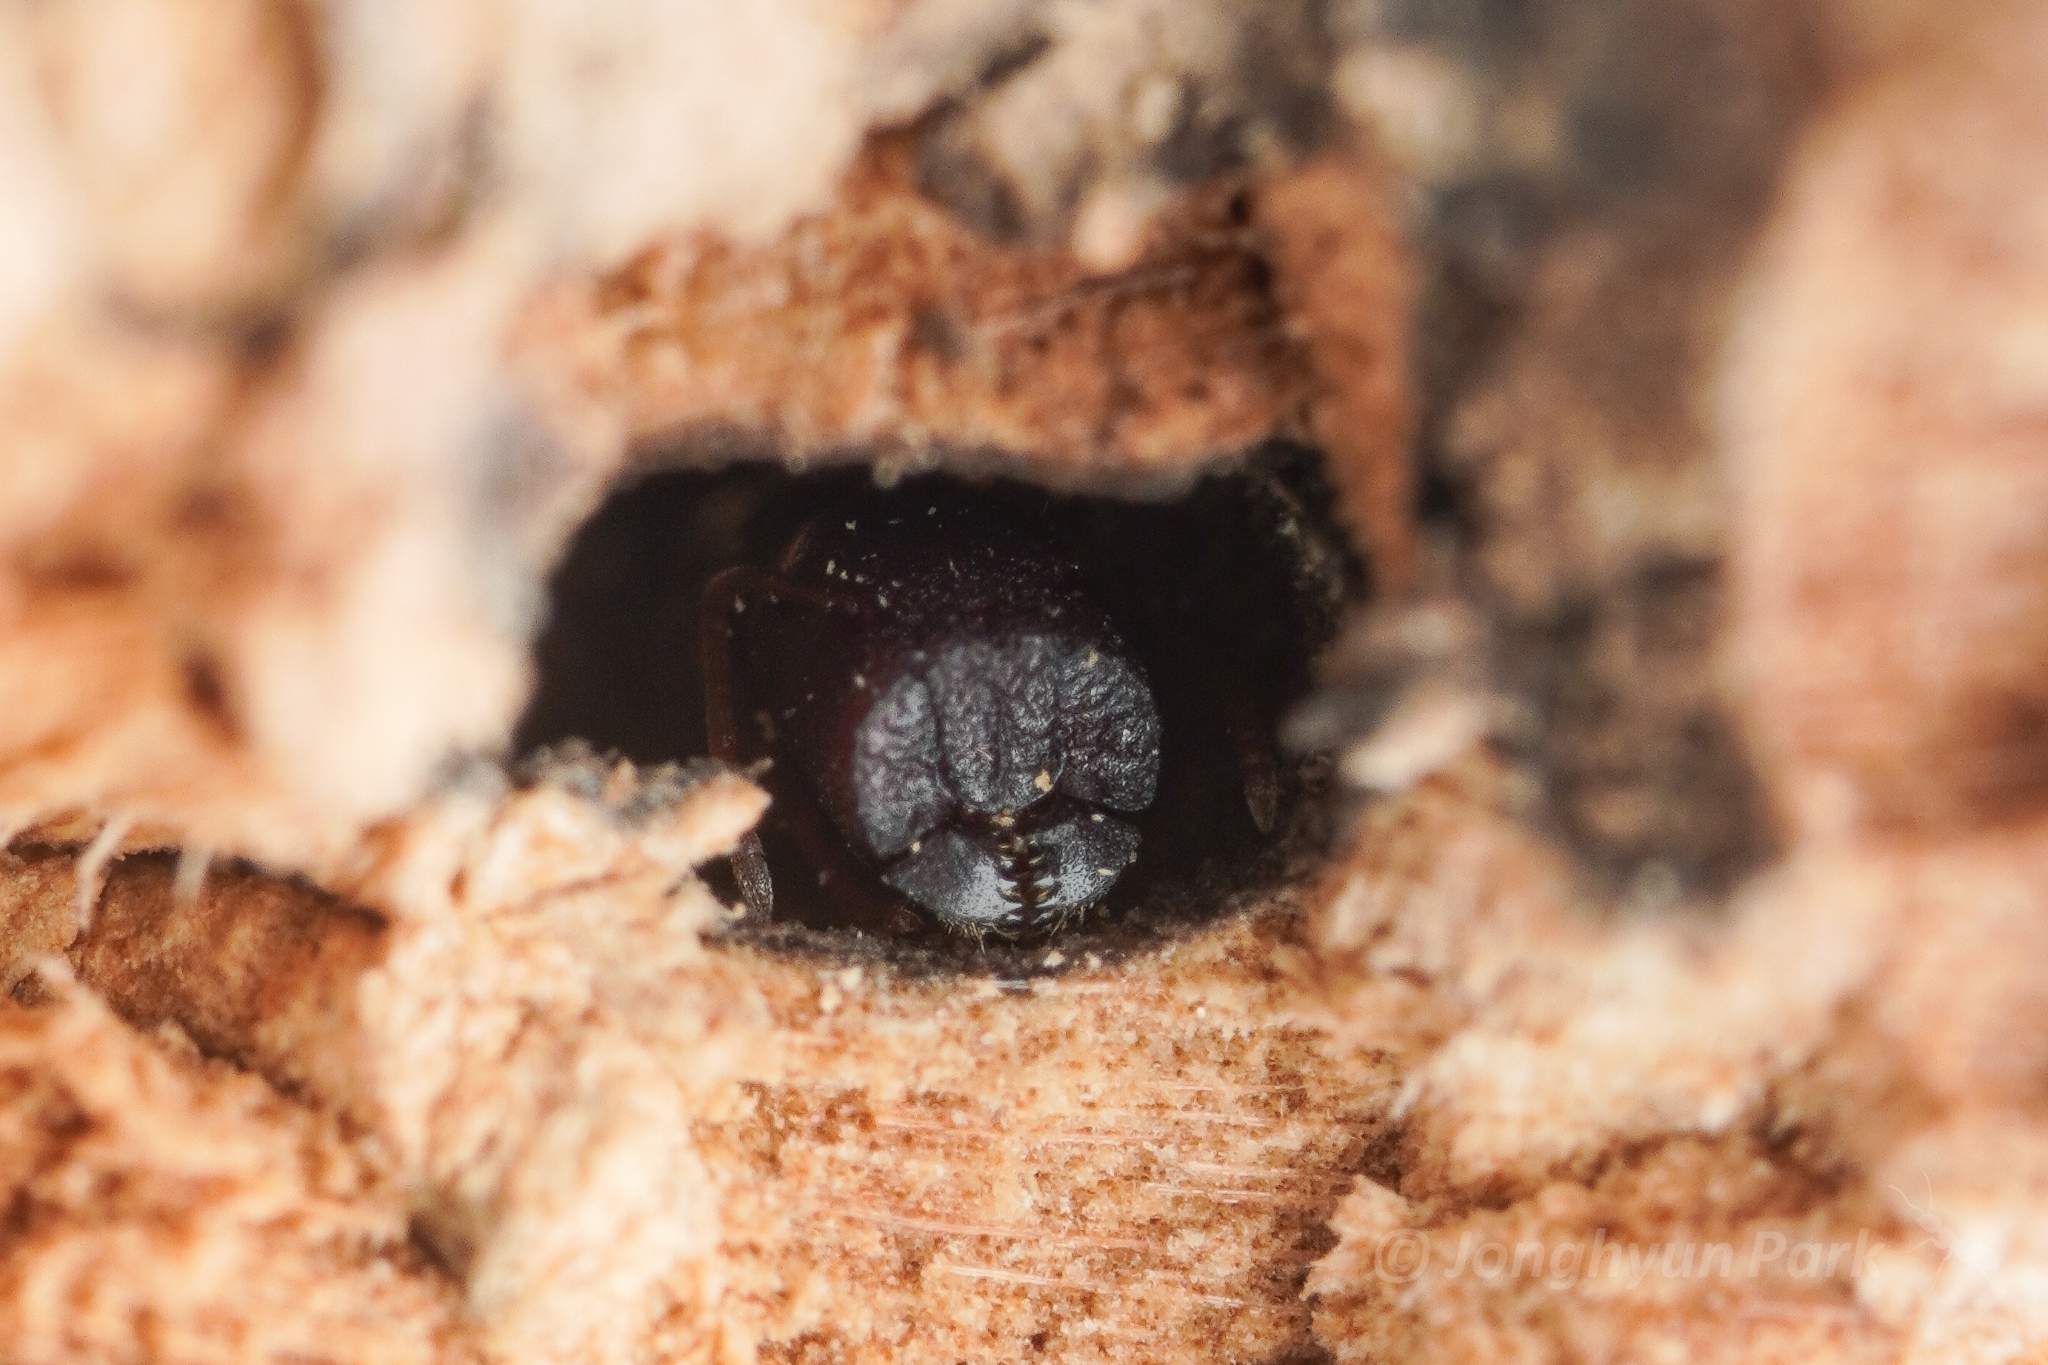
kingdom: Animalia
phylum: Arthropoda
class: Insecta
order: Hymenoptera
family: Formicidae
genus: Colobopsis
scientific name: Colobopsis
